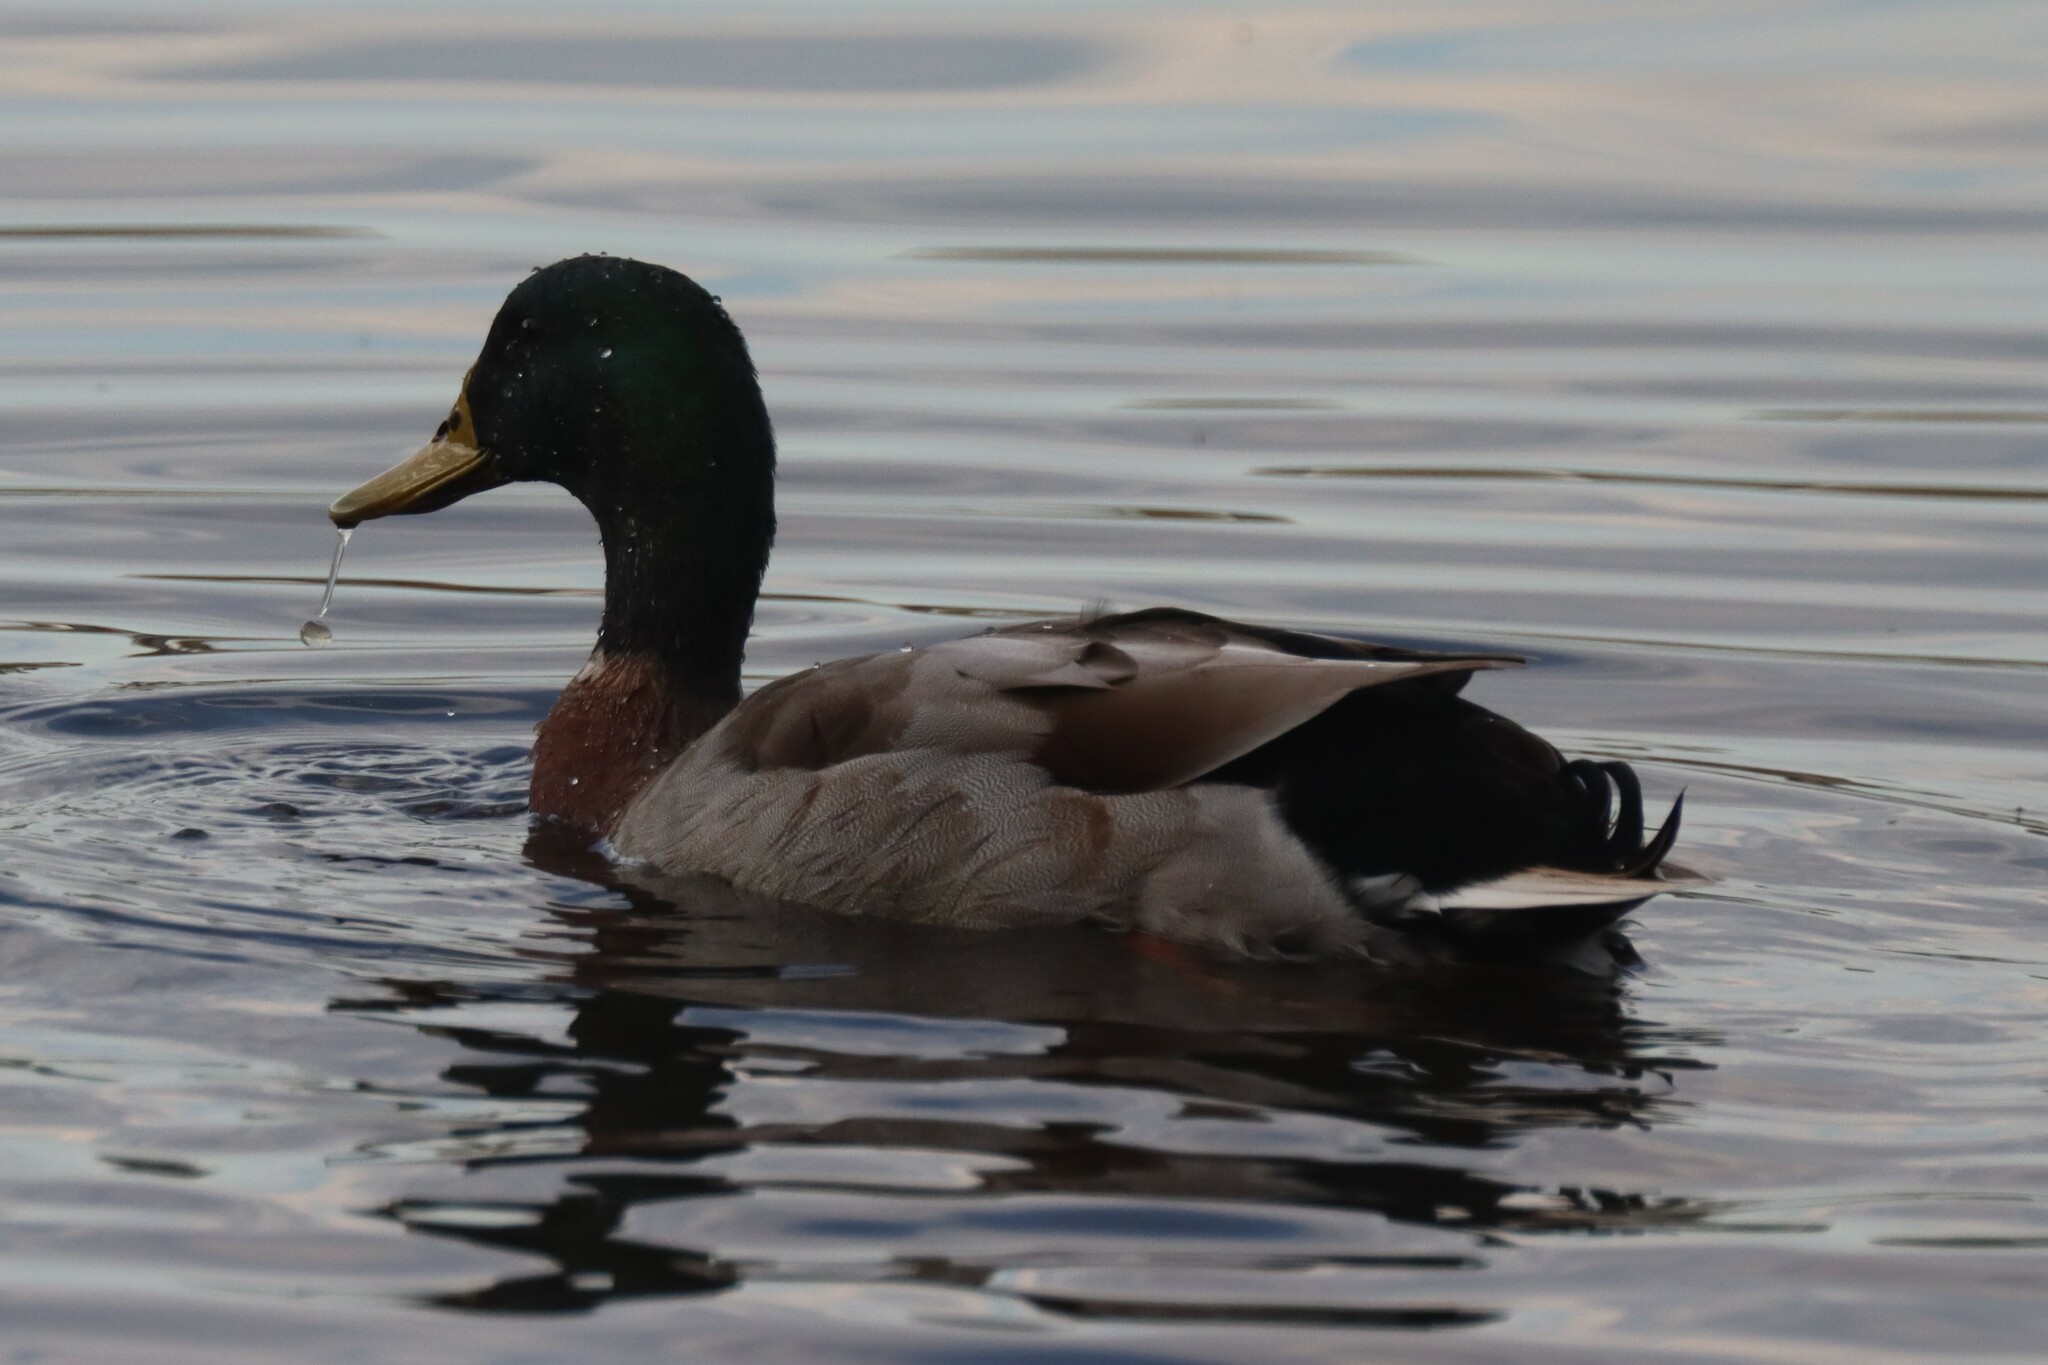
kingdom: Animalia
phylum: Chordata
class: Aves
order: Anseriformes
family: Anatidae
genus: Anas
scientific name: Anas platyrhynchos
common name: Mallard
